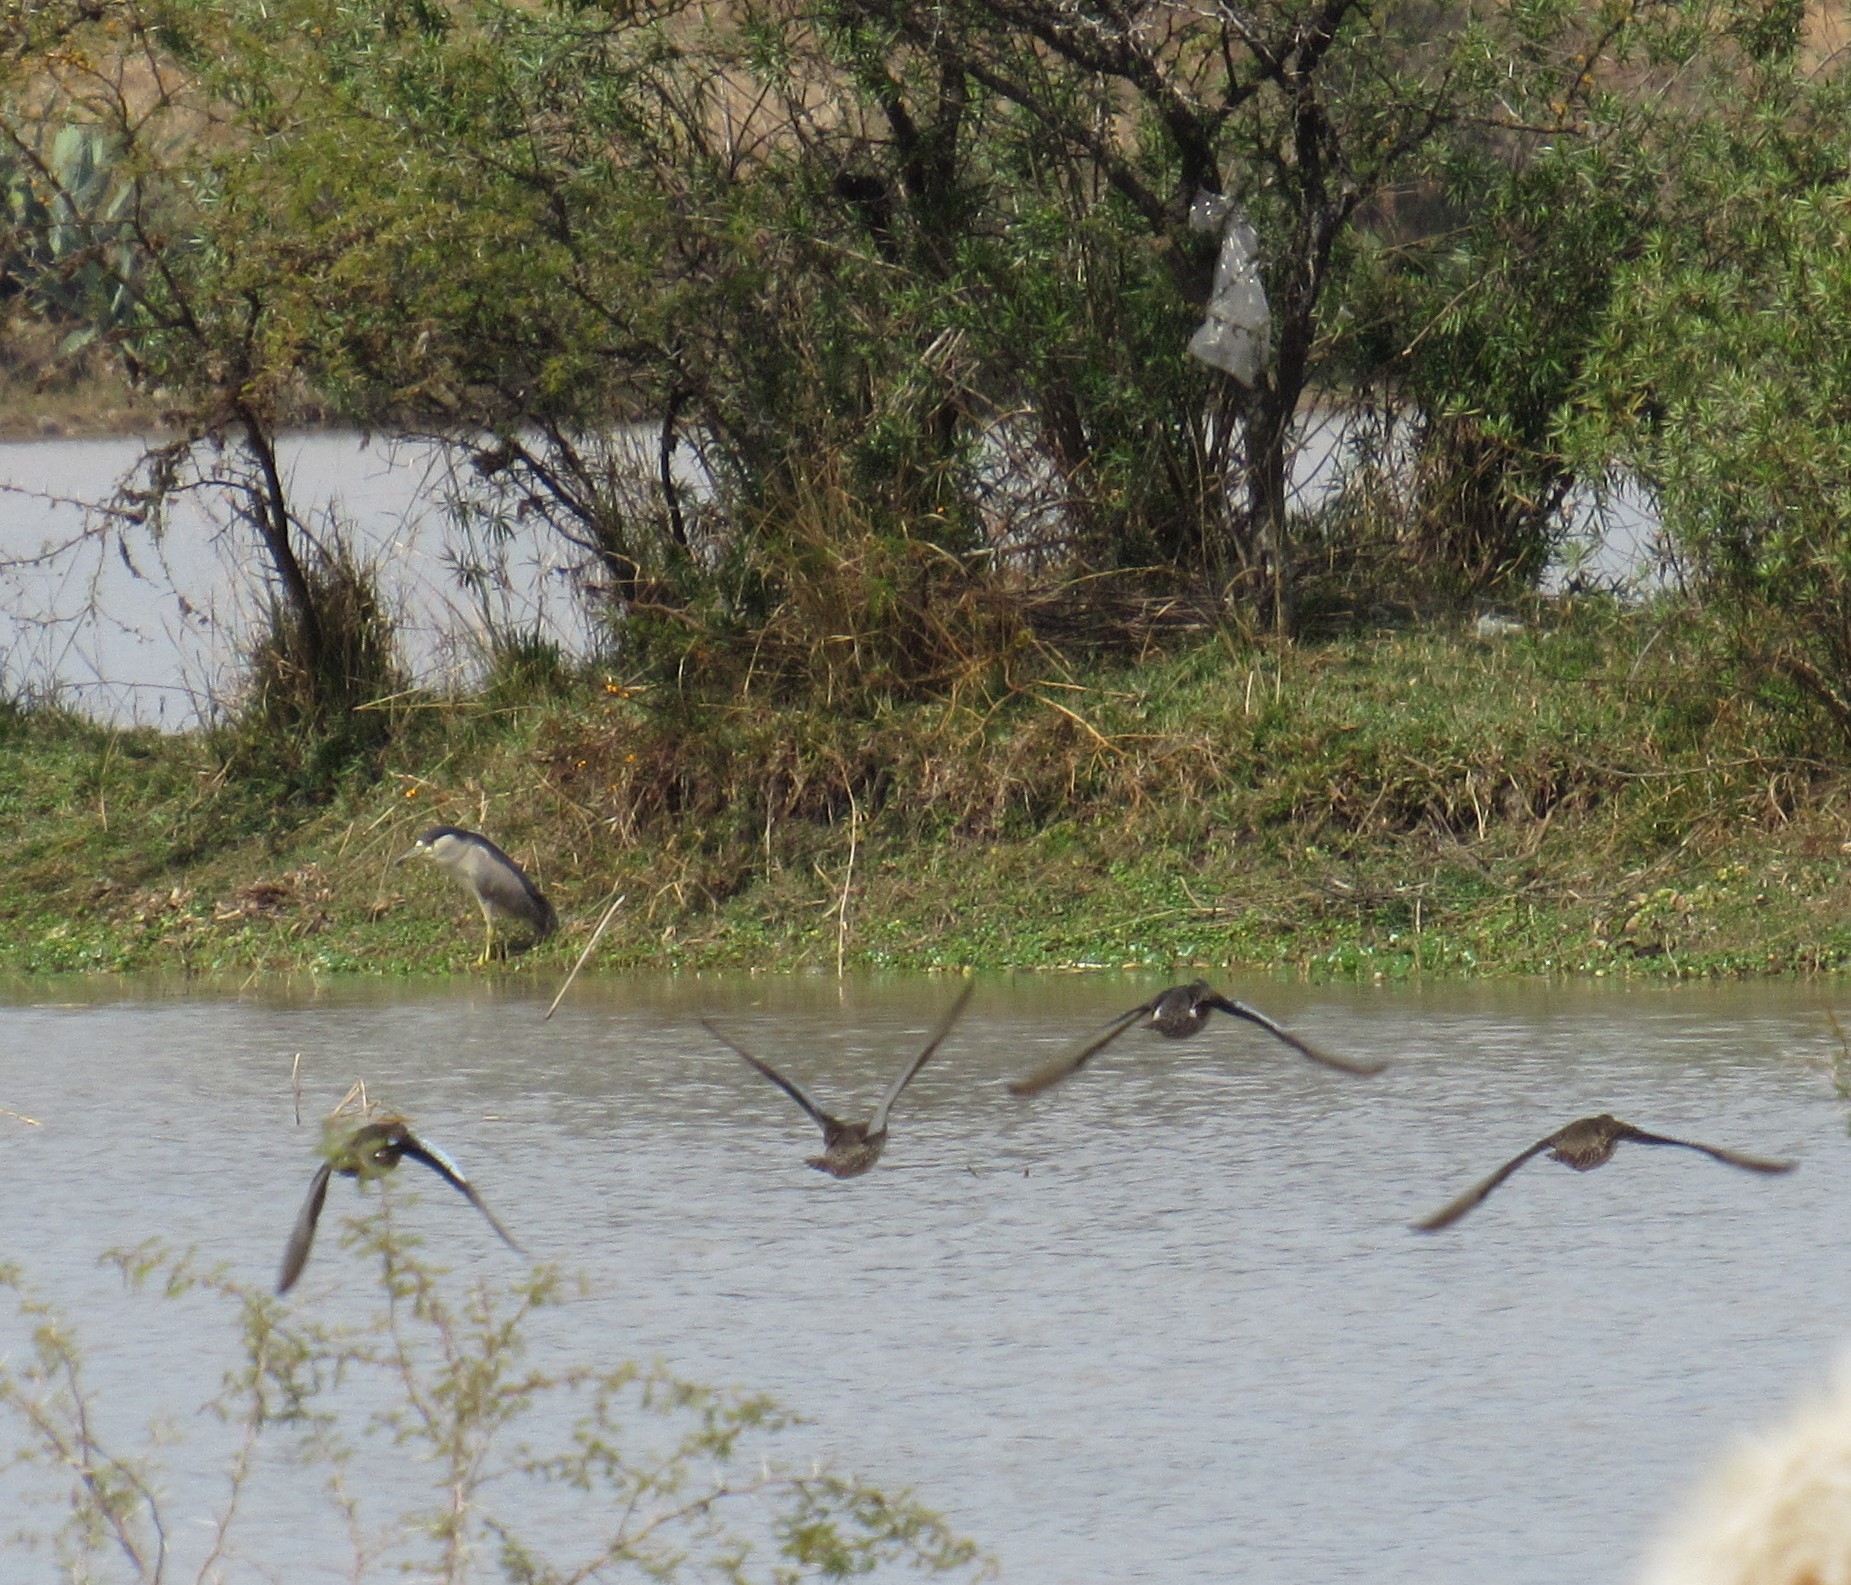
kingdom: Animalia
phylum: Chordata
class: Aves
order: Pelecaniformes
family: Ardeidae
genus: Nycticorax
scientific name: Nycticorax nycticorax
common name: Black-crowned night heron
